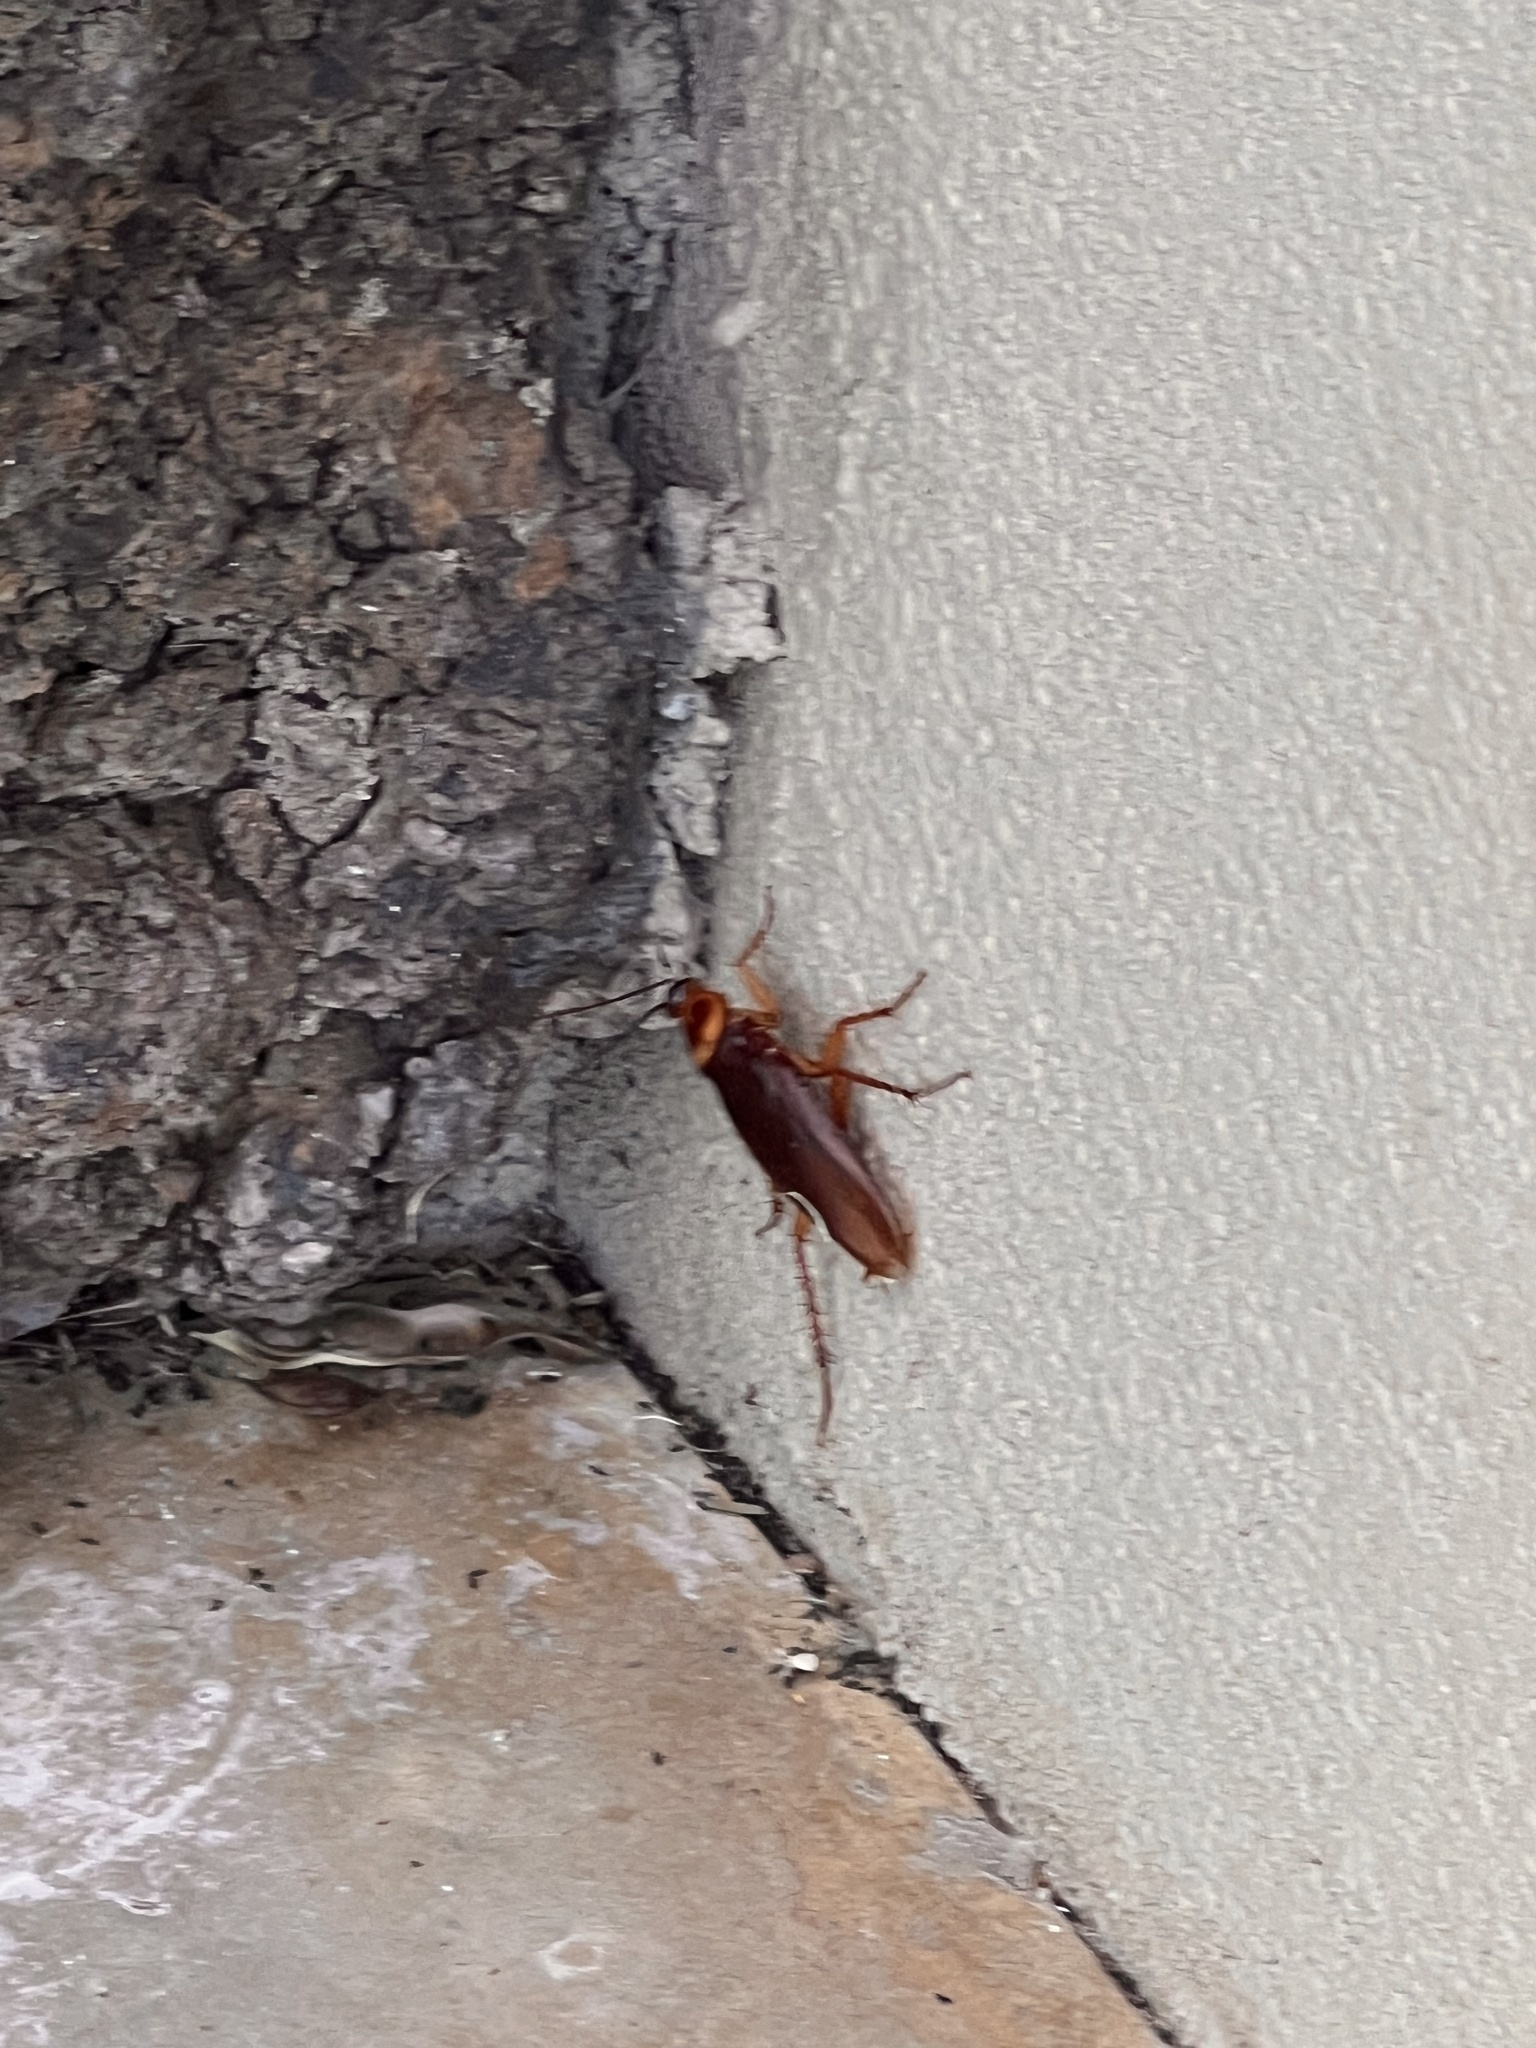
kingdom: Animalia
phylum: Arthropoda
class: Insecta
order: Blattodea
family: Blattidae
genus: Periplaneta
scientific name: Periplaneta americana
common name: American cockroach
